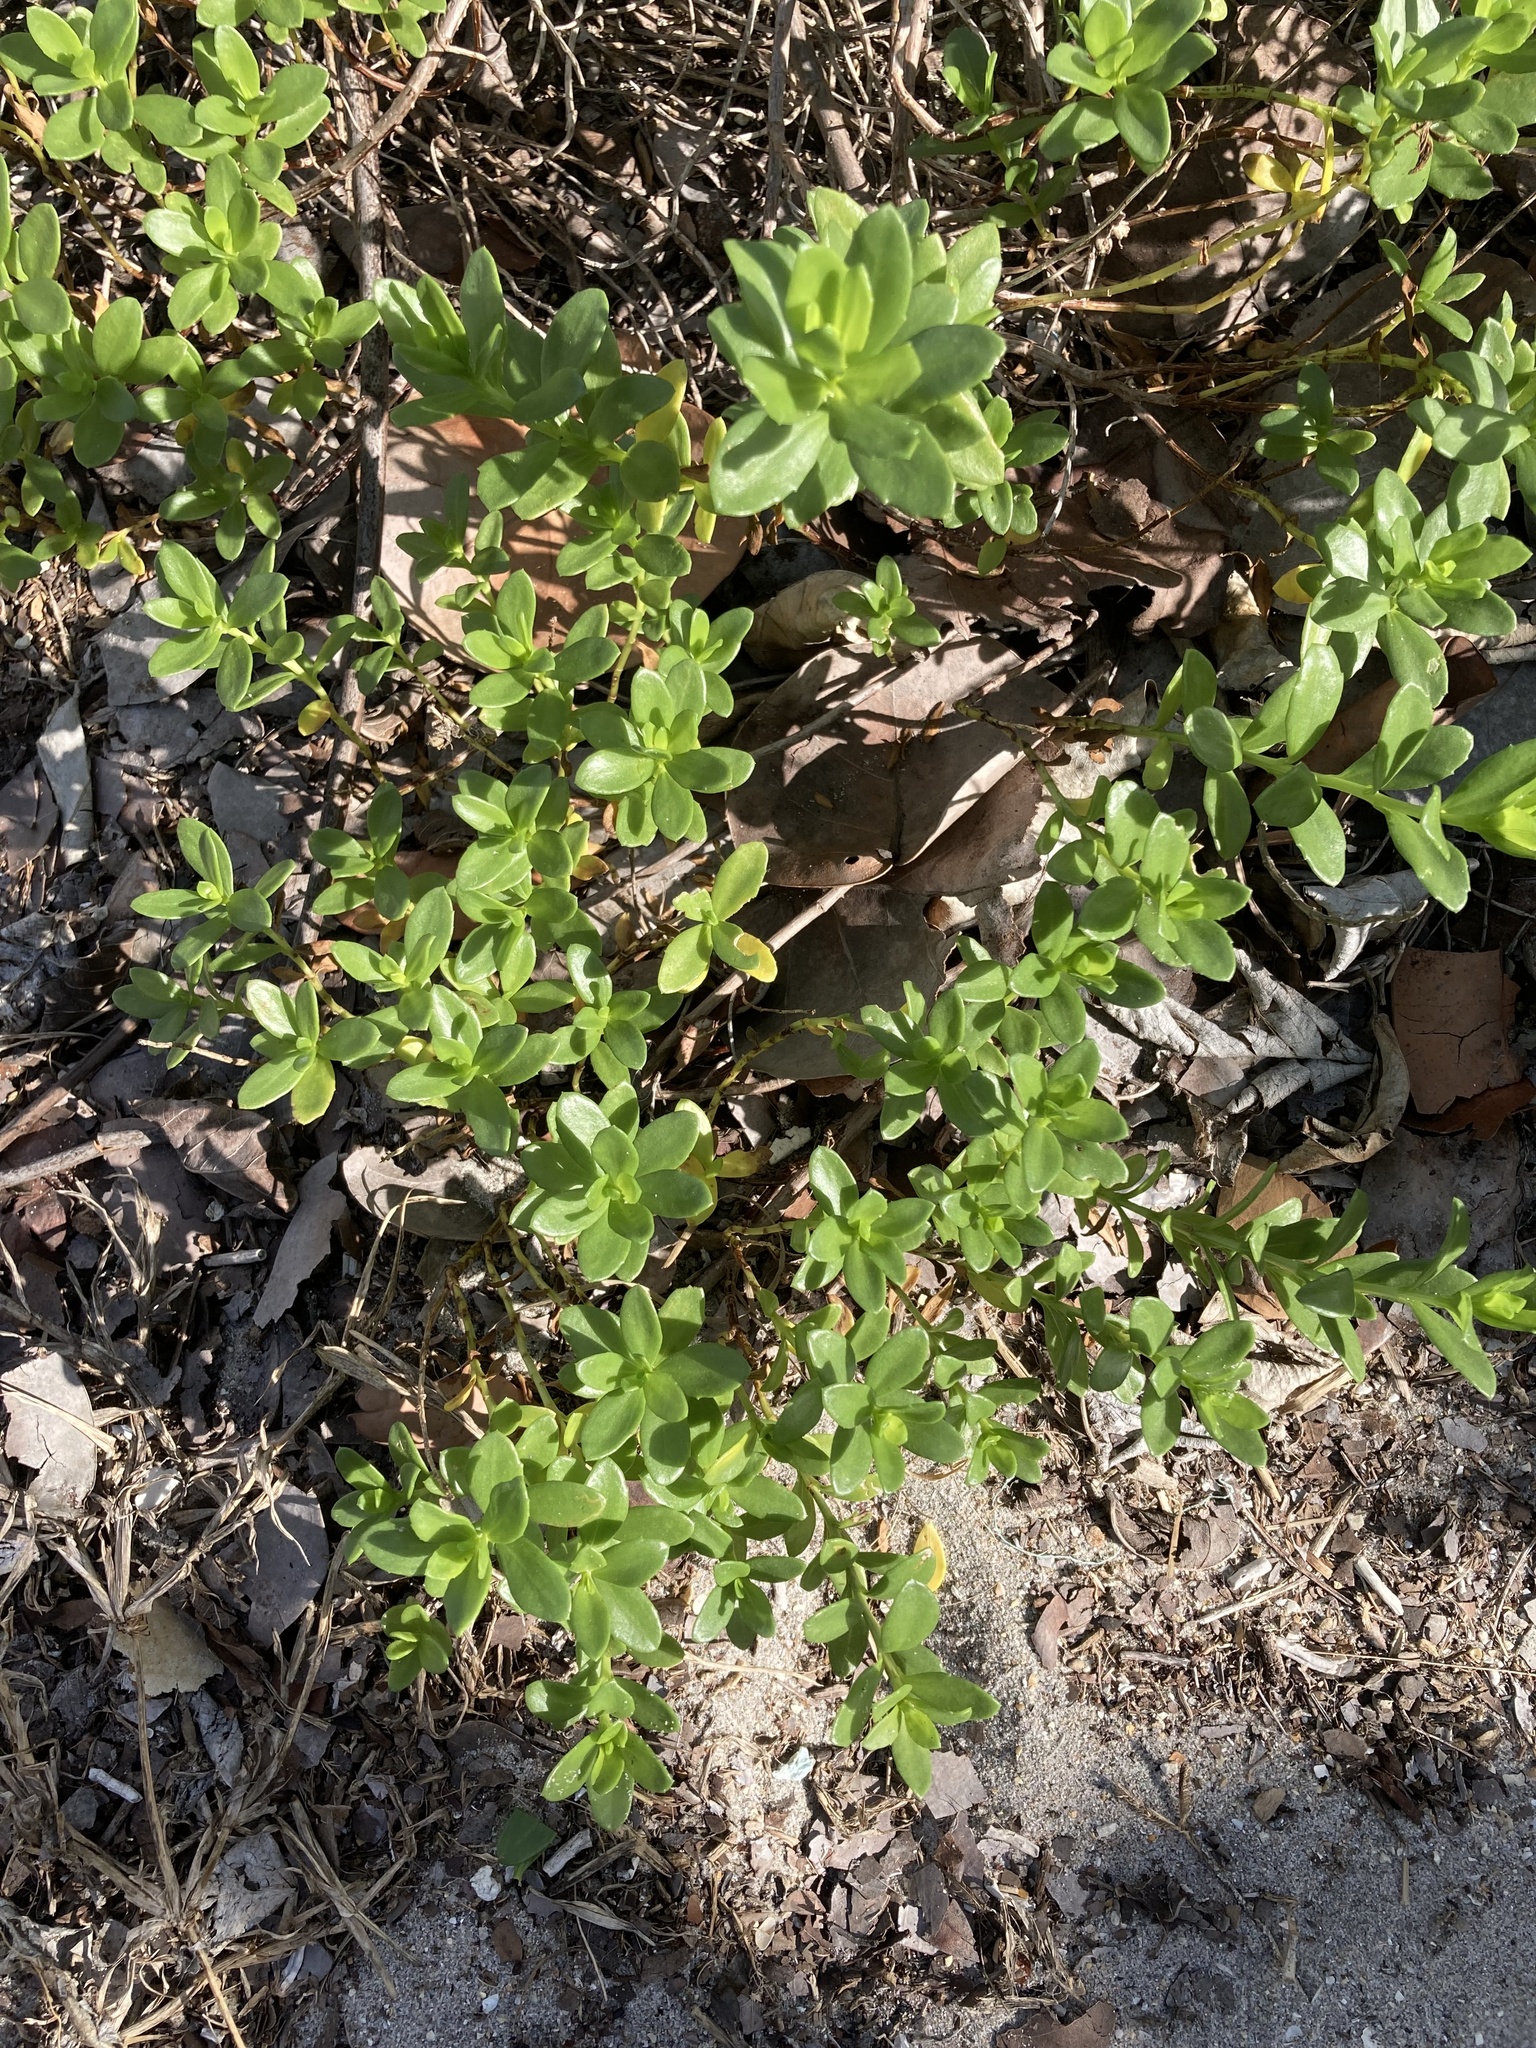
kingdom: Plantae
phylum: Tracheophyta
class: Magnoliopsida
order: Asterales
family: Asteraceae
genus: Iva
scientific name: Iva imbricata
